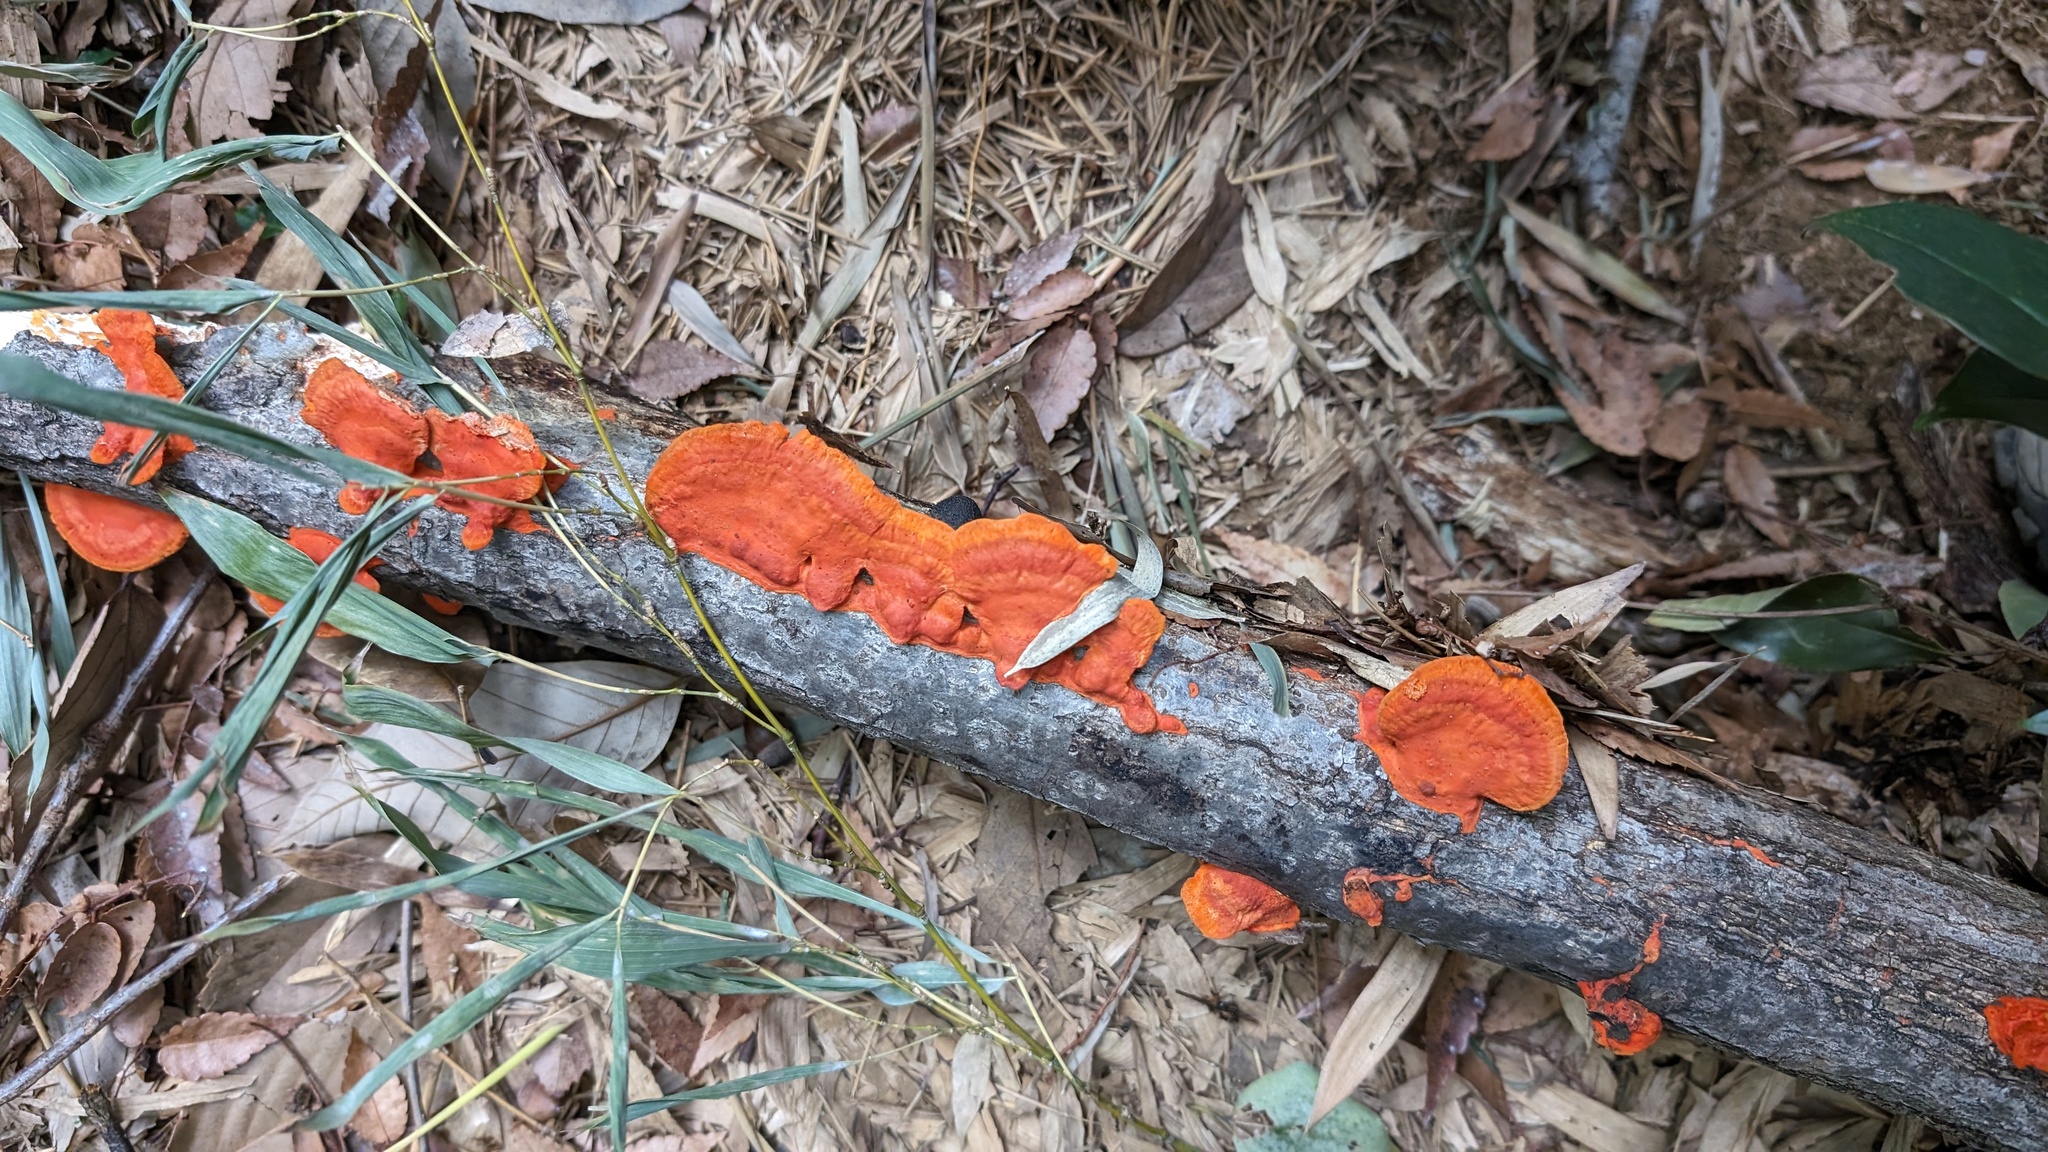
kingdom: Fungi
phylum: Basidiomycota
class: Agaricomycetes
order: Polyporales
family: Polyporaceae
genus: Trametes
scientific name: Trametes coccinea
